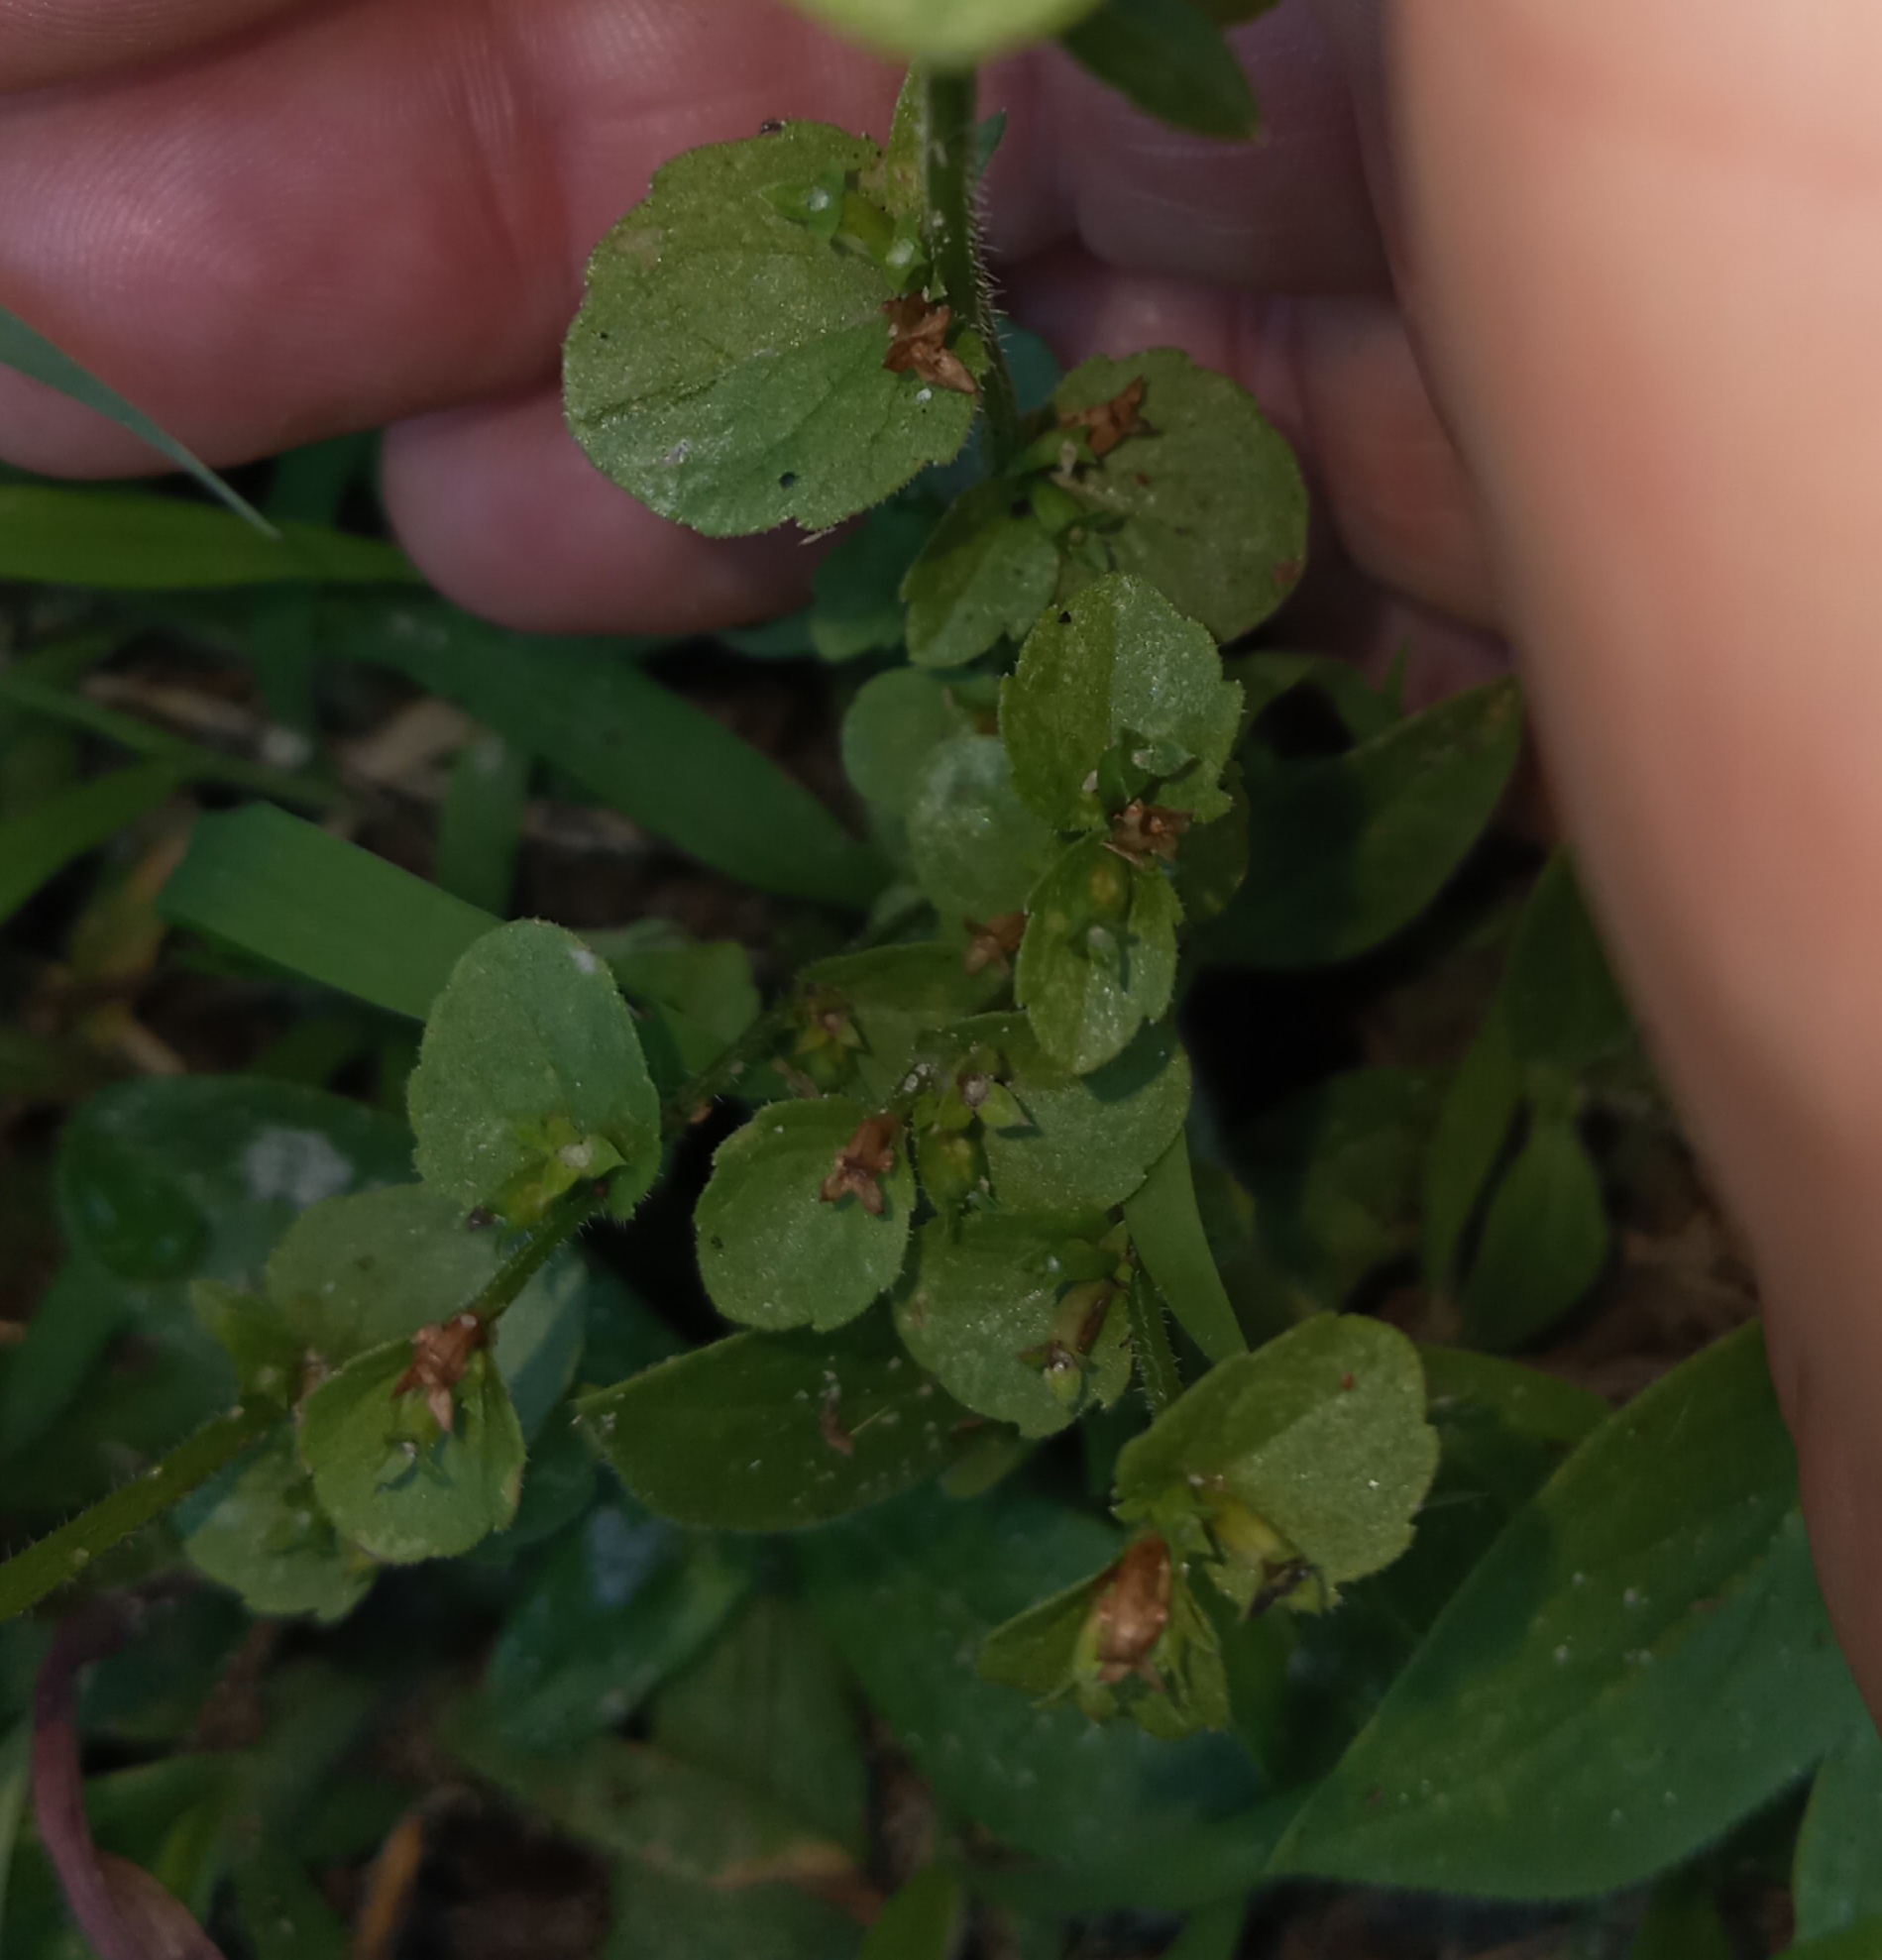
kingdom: Plantae
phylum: Tracheophyta
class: Magnoliopsida
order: Asterales
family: Campanulaceae
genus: Triodanis
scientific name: Triodanis perfoliata
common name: Clasping venus' looking-glass
